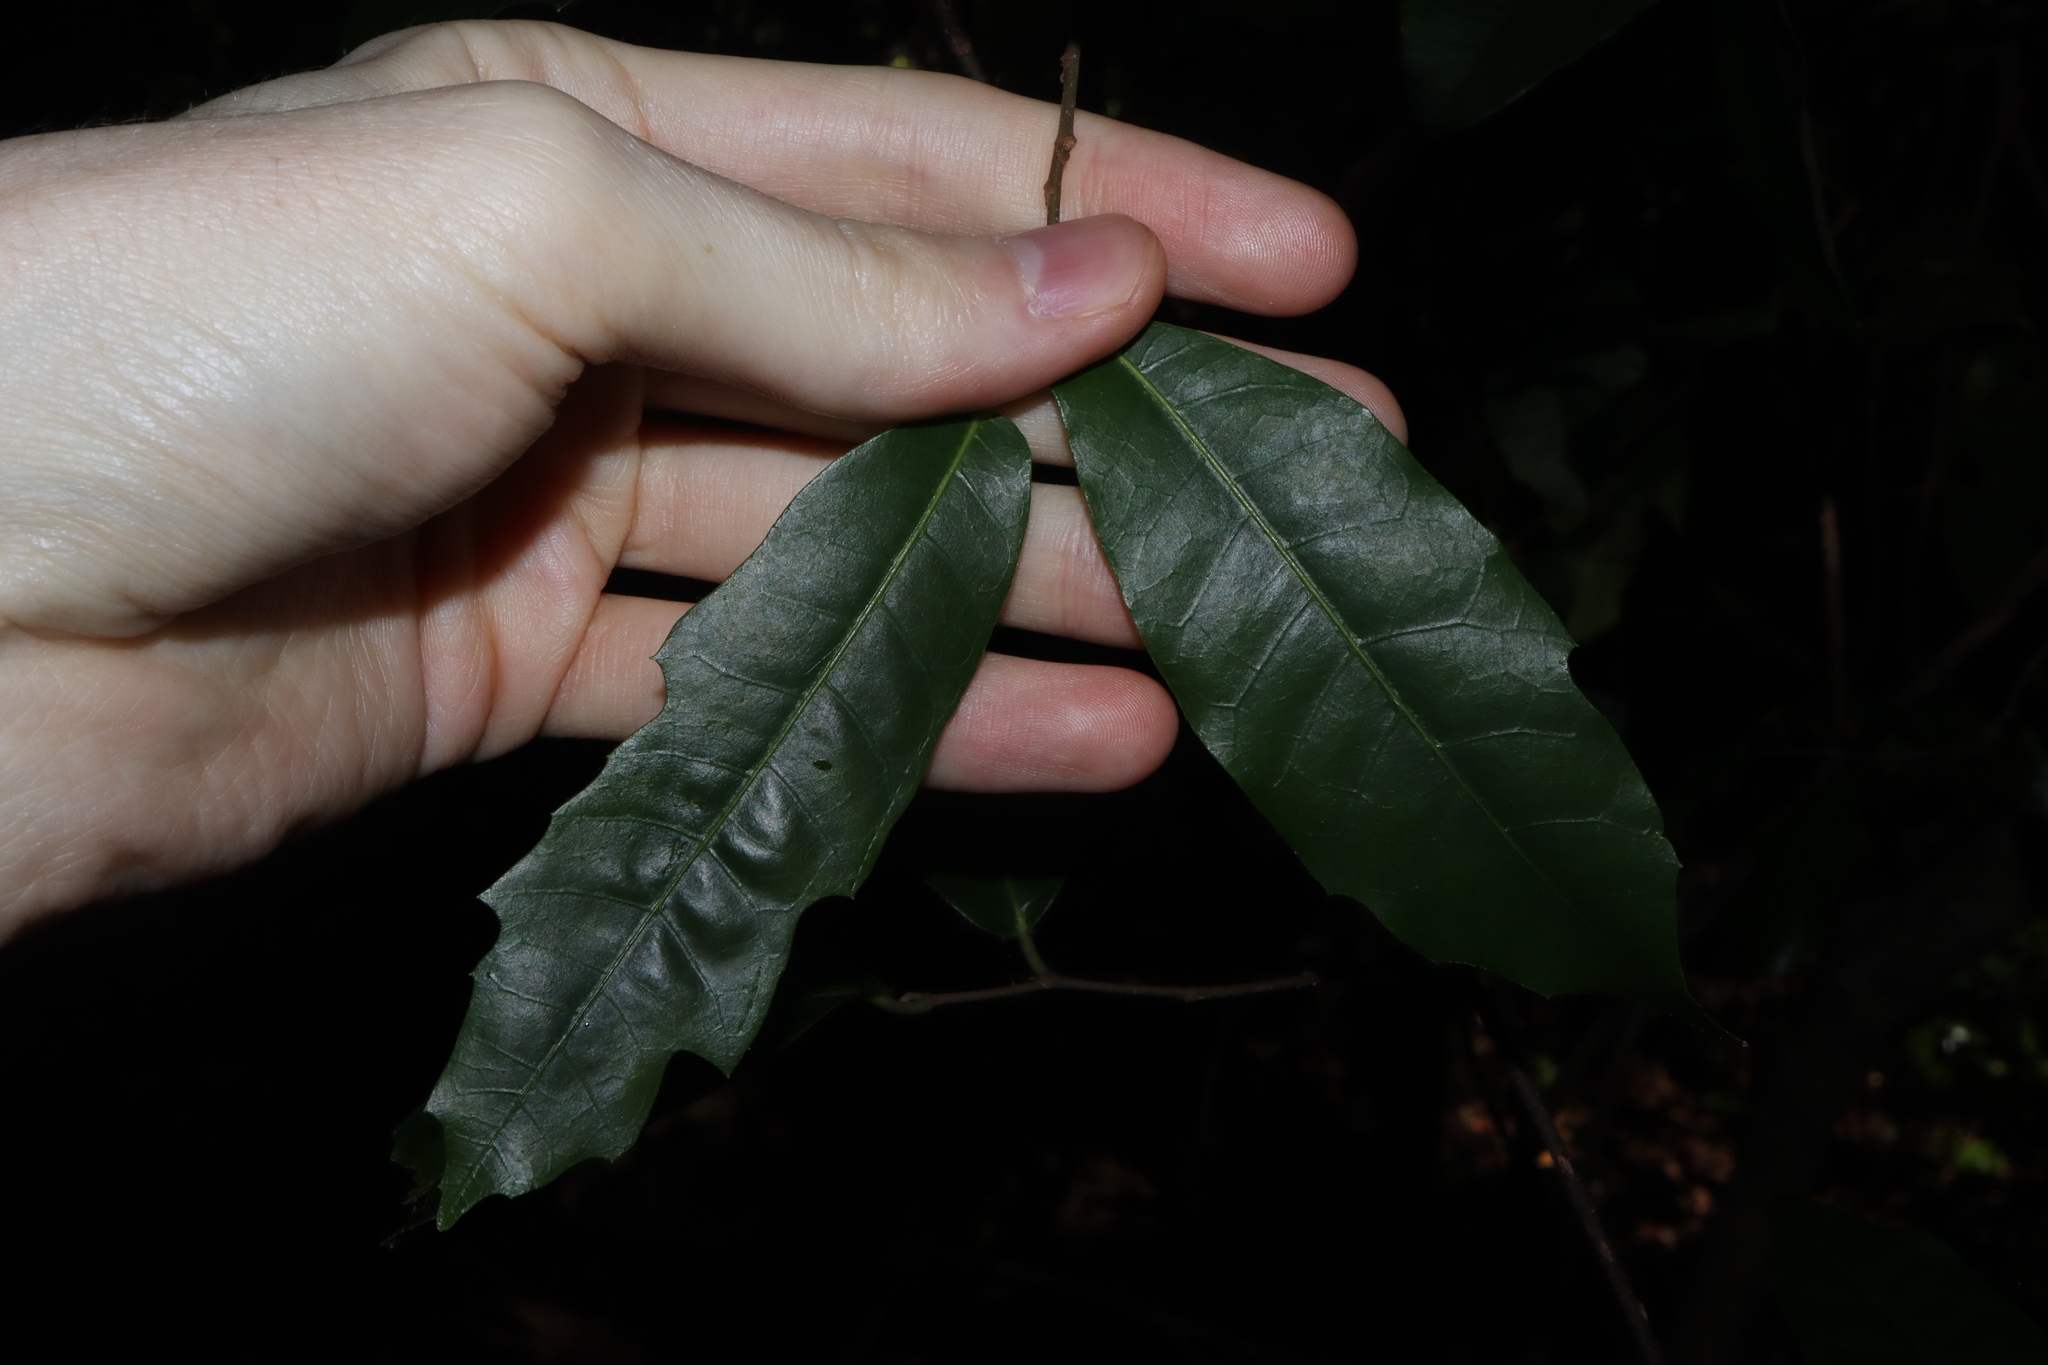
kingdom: Plantae
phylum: Tracheophyta
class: Magnoliopsida
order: Rosales
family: Moraceae
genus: Malaisia
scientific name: Malaisia scandens
